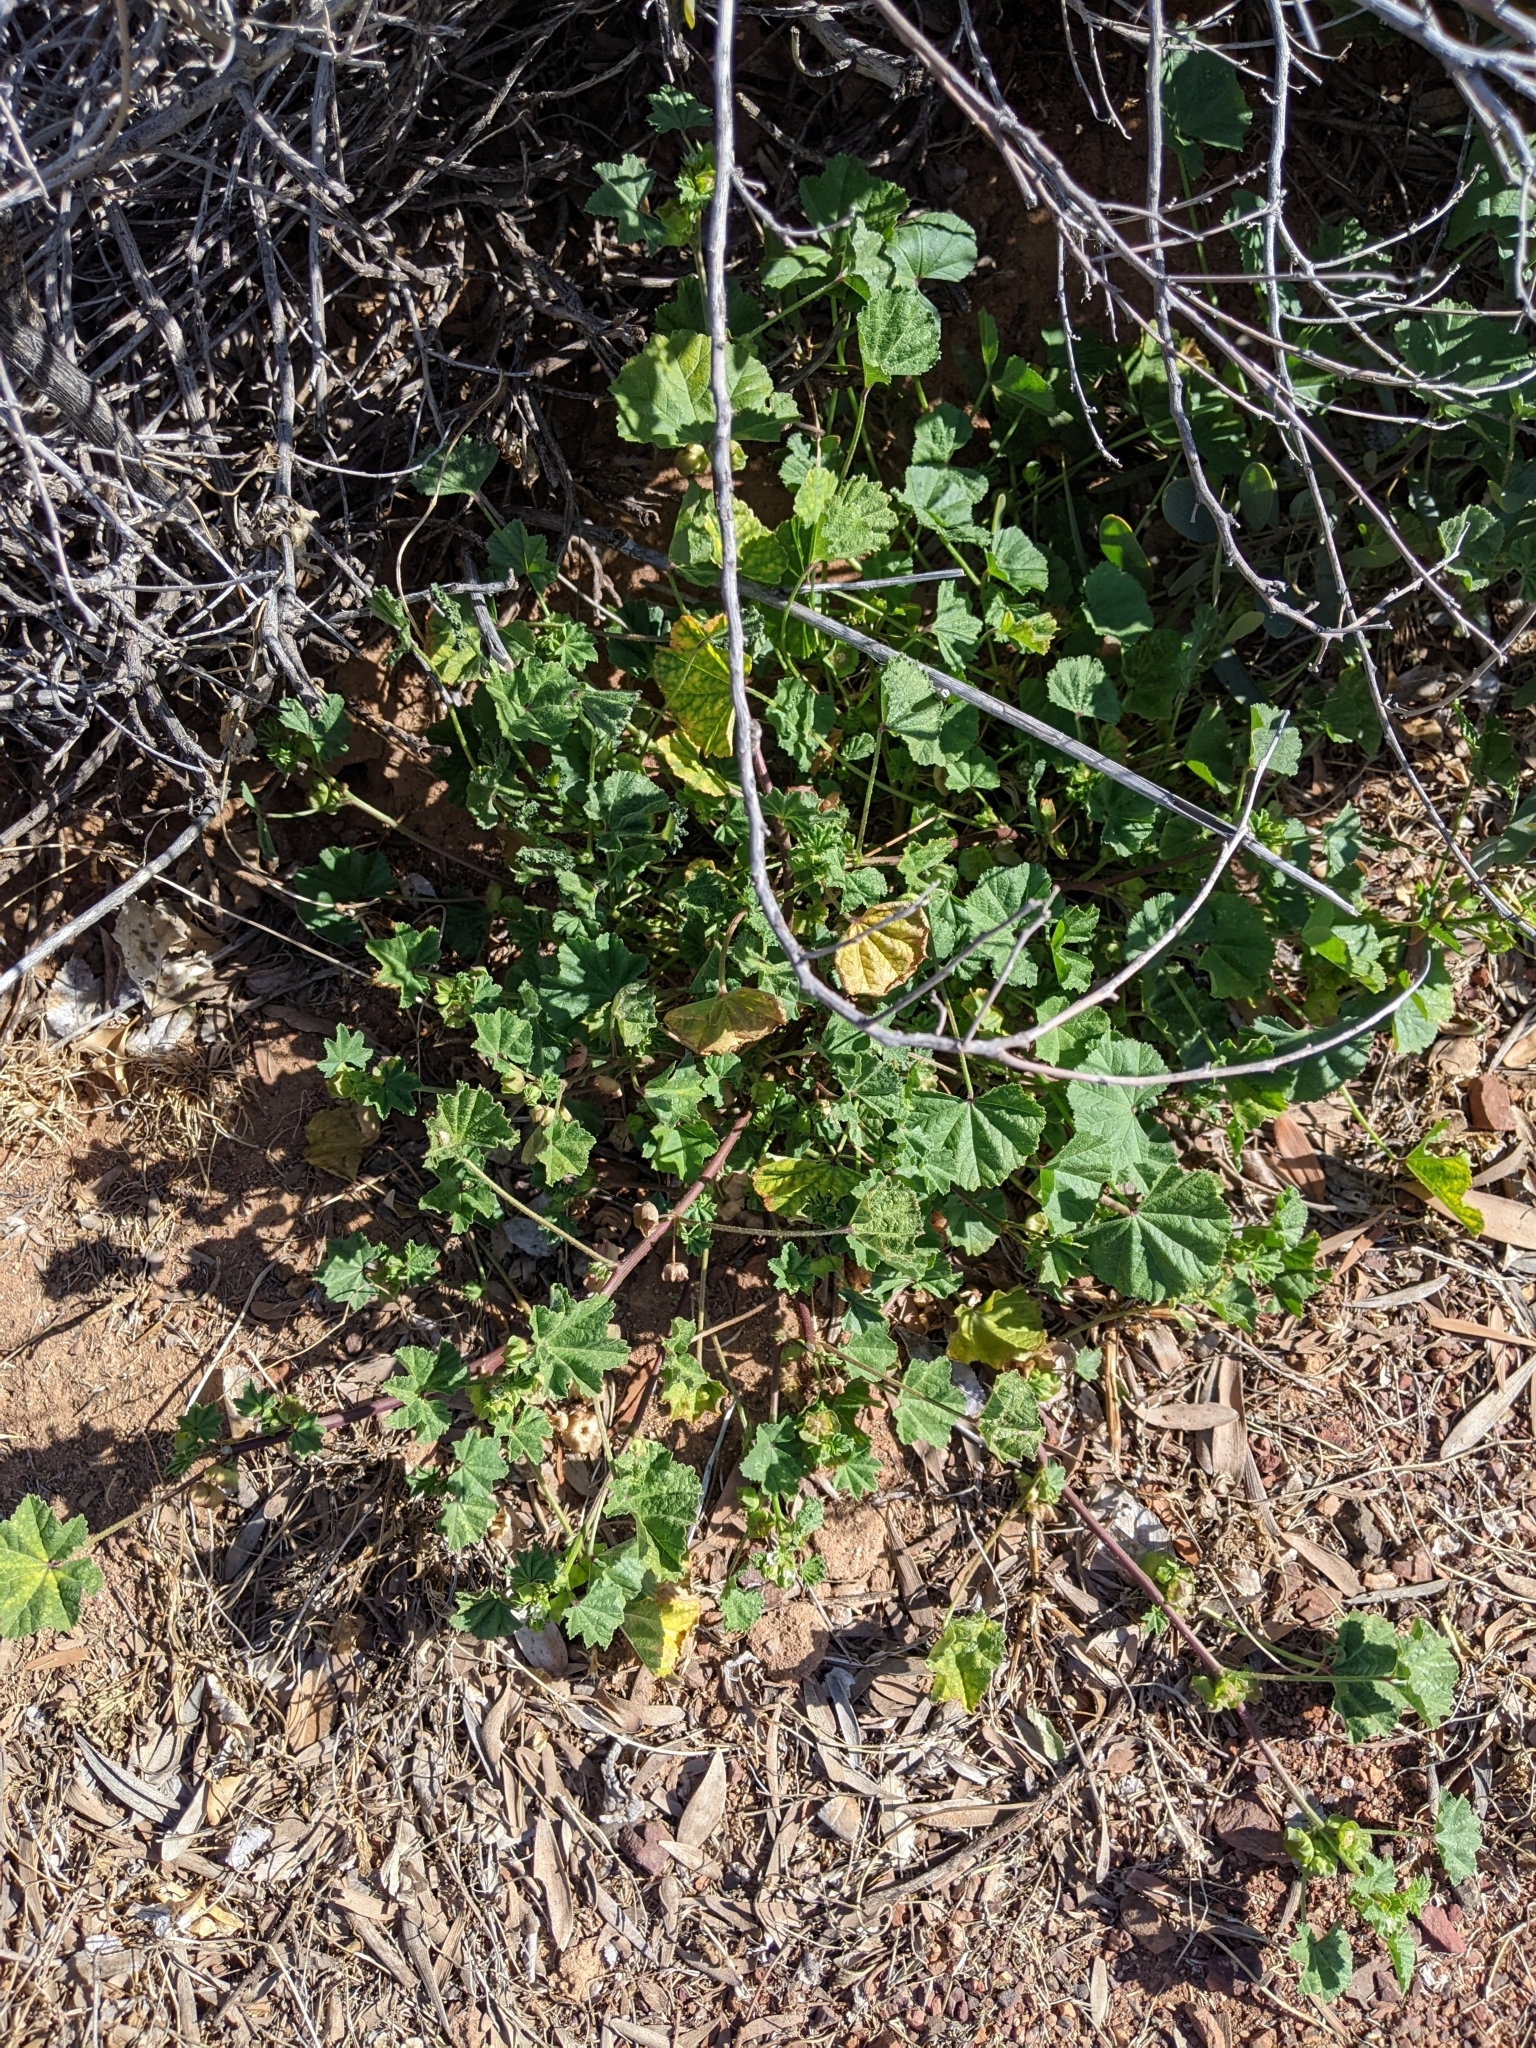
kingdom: Plantae
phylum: Tracheophyta
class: Magnoliopsida
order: Malvales
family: Malvaceae
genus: Malva
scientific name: Malva parviflora
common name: Least mallow
